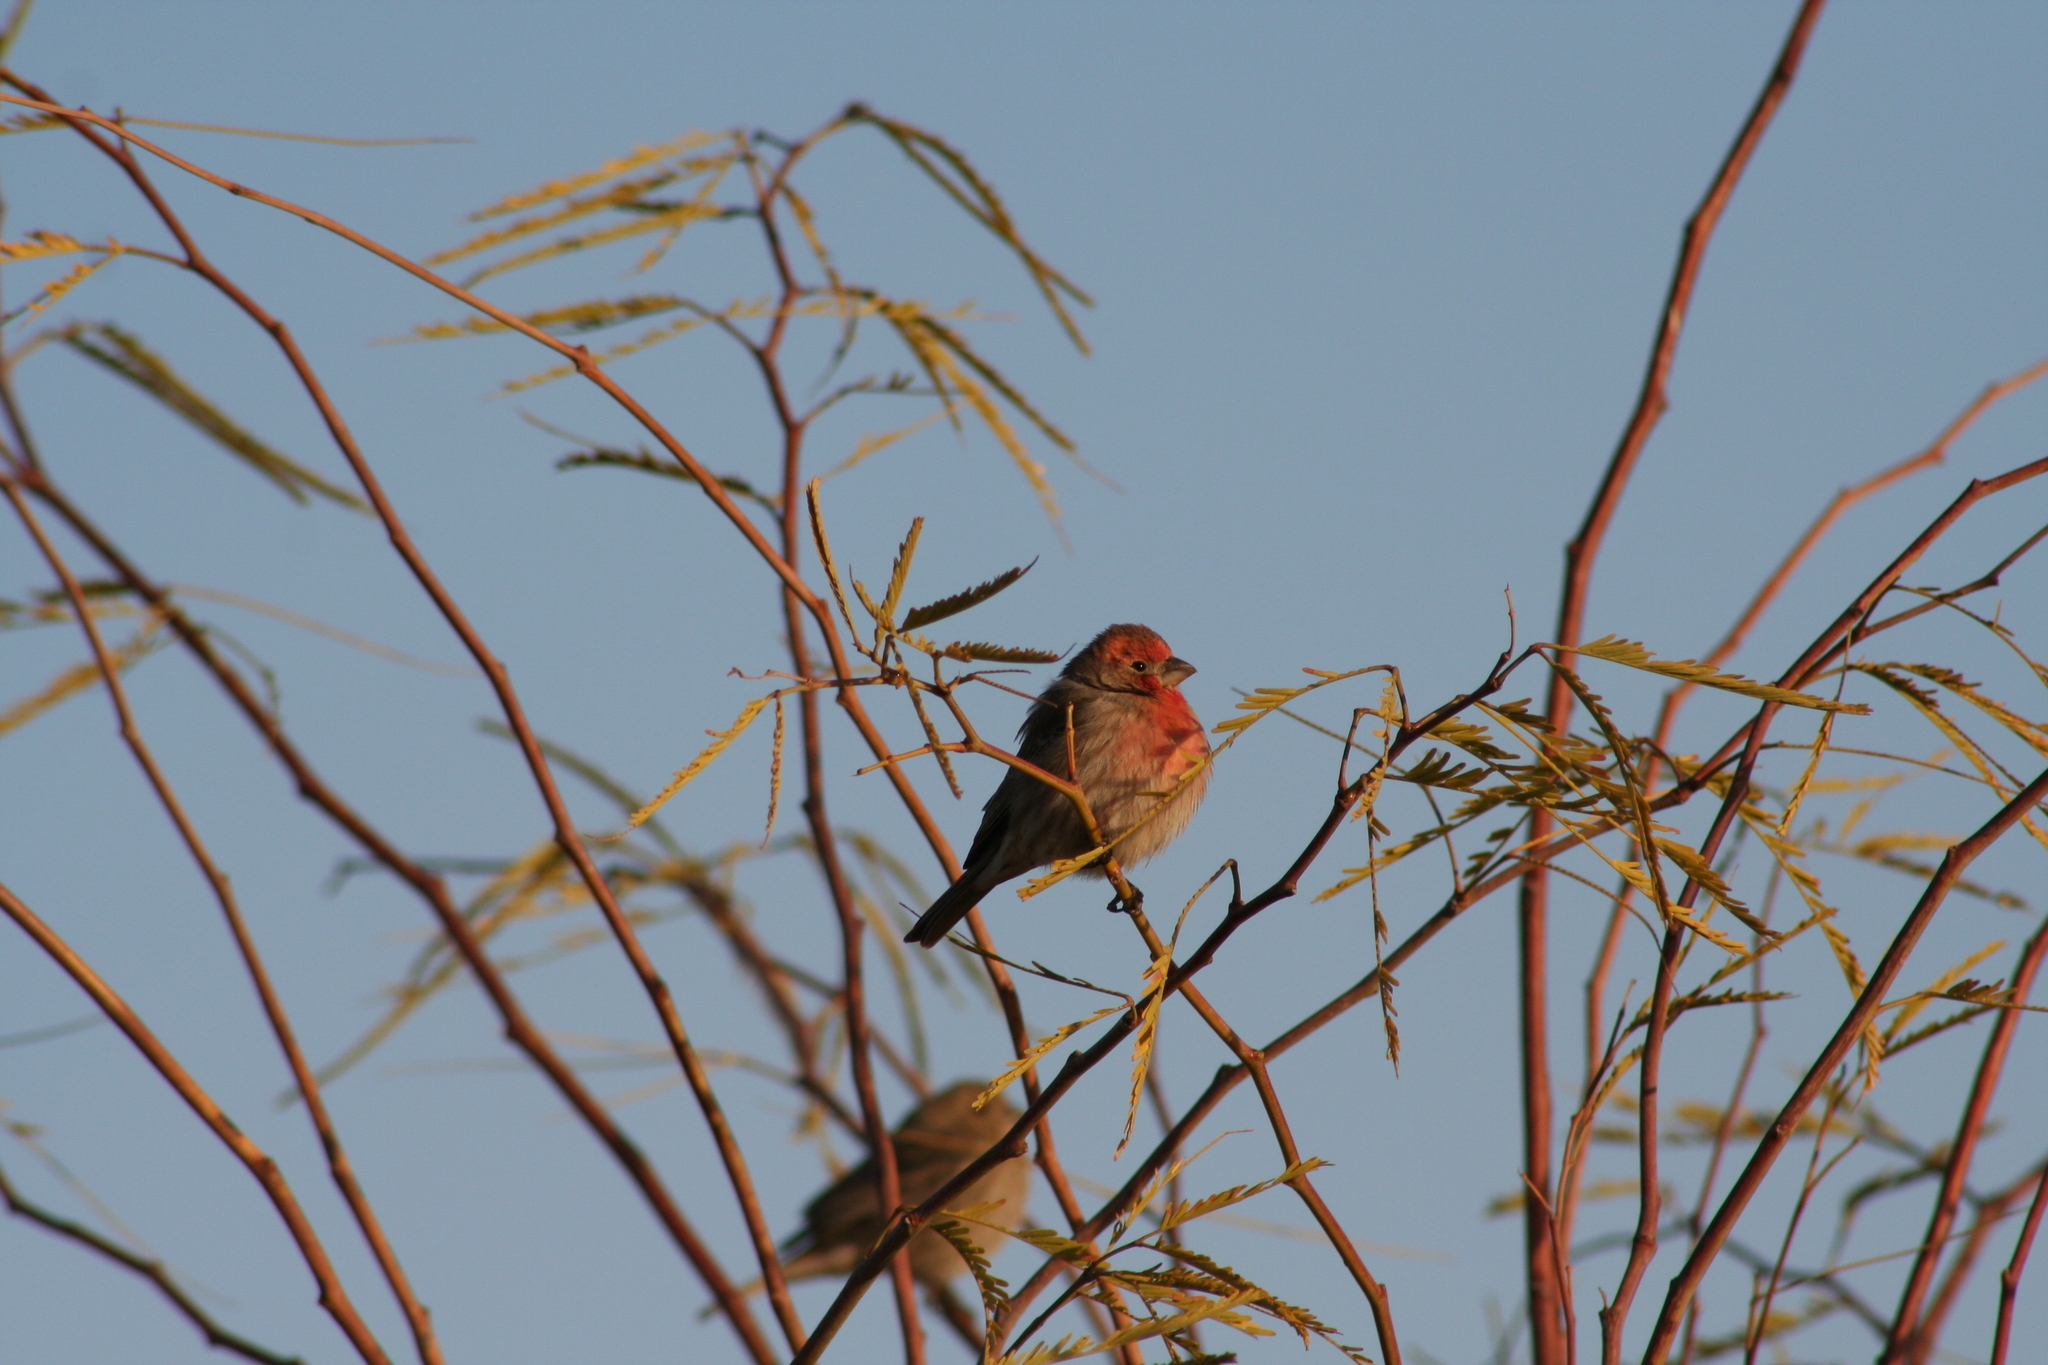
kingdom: Animalia
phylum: Chordata
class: Aves
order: Passeriformes
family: Fringillidae
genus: Haemorhous
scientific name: Haemorhous mexicanus
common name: House finch
